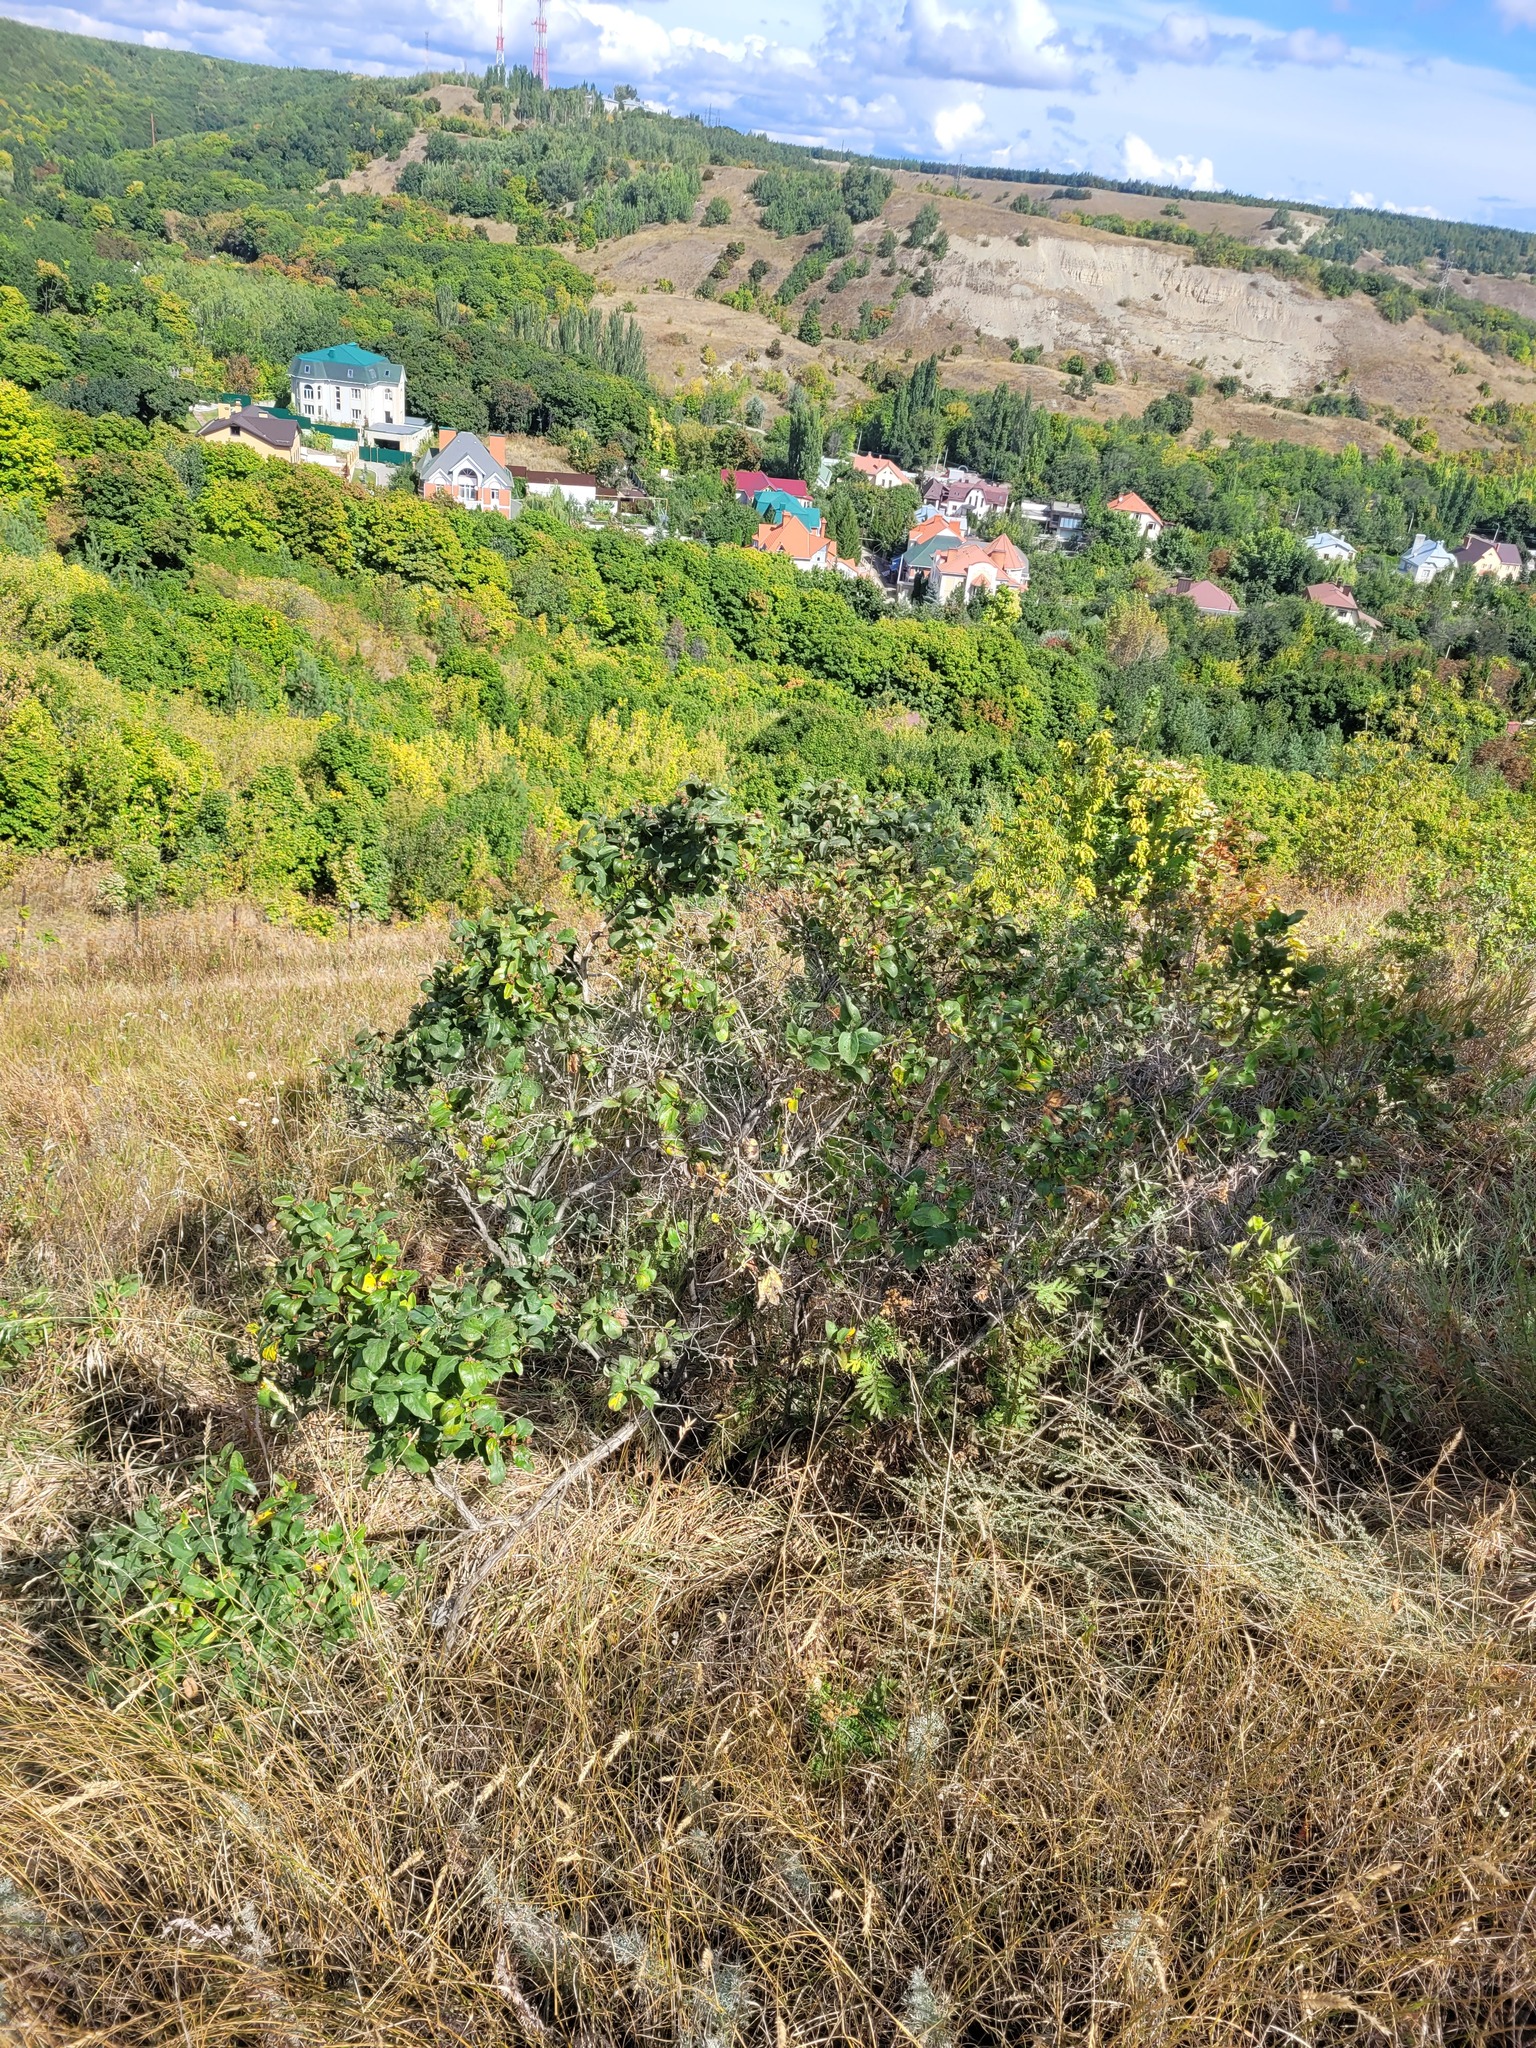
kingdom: Plantae
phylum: Tracheophyta
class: Magnoliopsida
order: Dipsacales
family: Caprifoliaceae
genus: Lonicera
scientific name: Lonicera tatarica
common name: Tatarian honeysuckle
